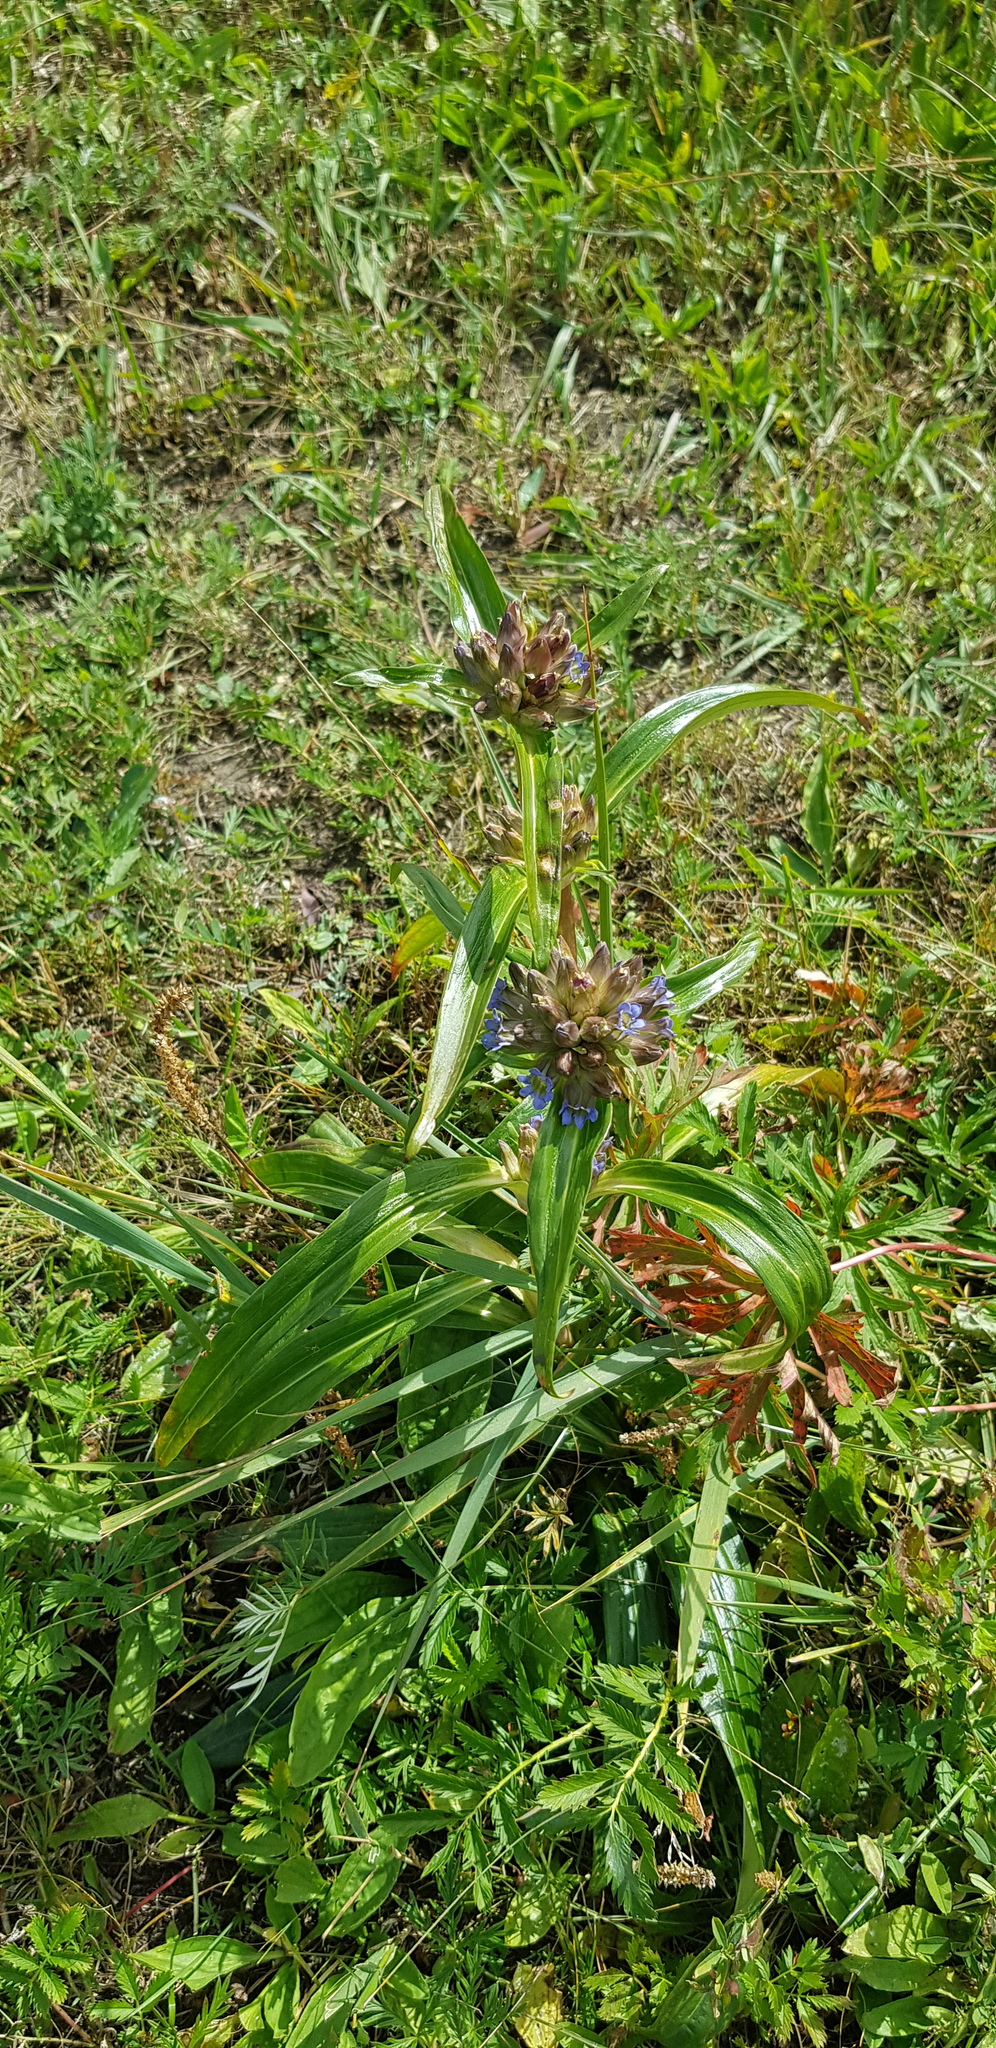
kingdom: Plantae
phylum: Tracheophyta
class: Magnoliopsida
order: Gentianales
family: Gentianaceae
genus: Gentiana
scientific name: Gentiana macrophylla
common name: Large-leaf gentian
